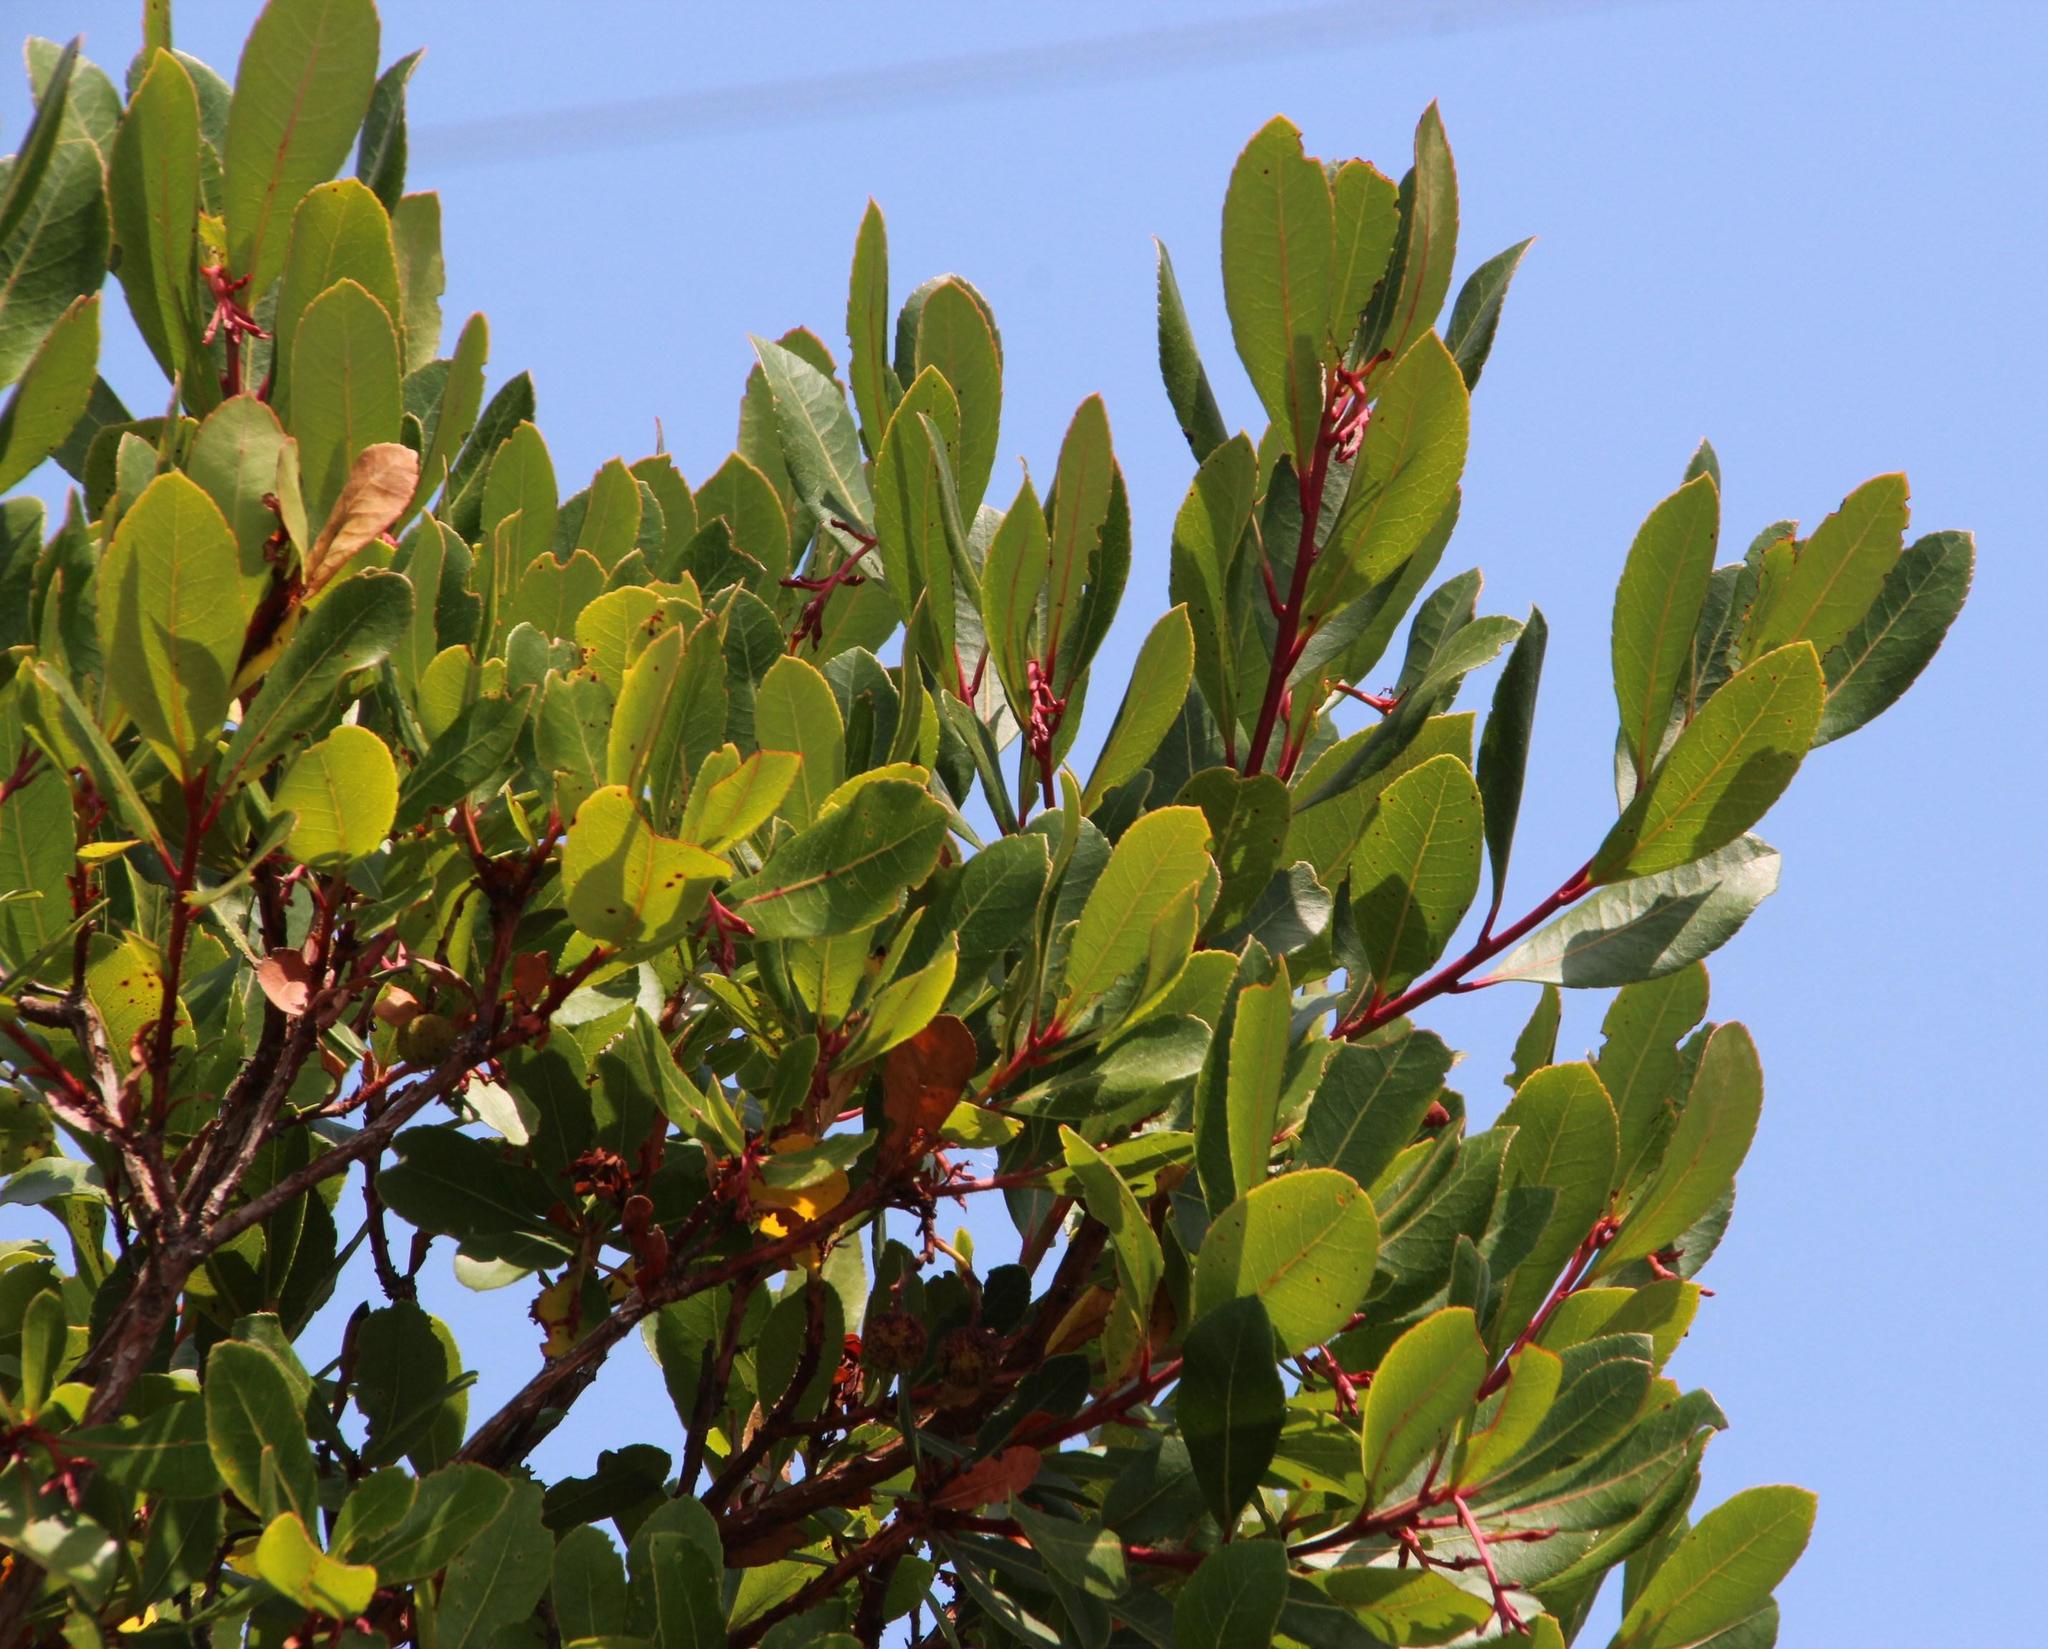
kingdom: Plantae
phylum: Tracheophyta
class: Magnoliopsida
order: Ericales
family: Ericaceae
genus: Arbutus
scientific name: Arbutus unedo
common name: Strawberry-tree
